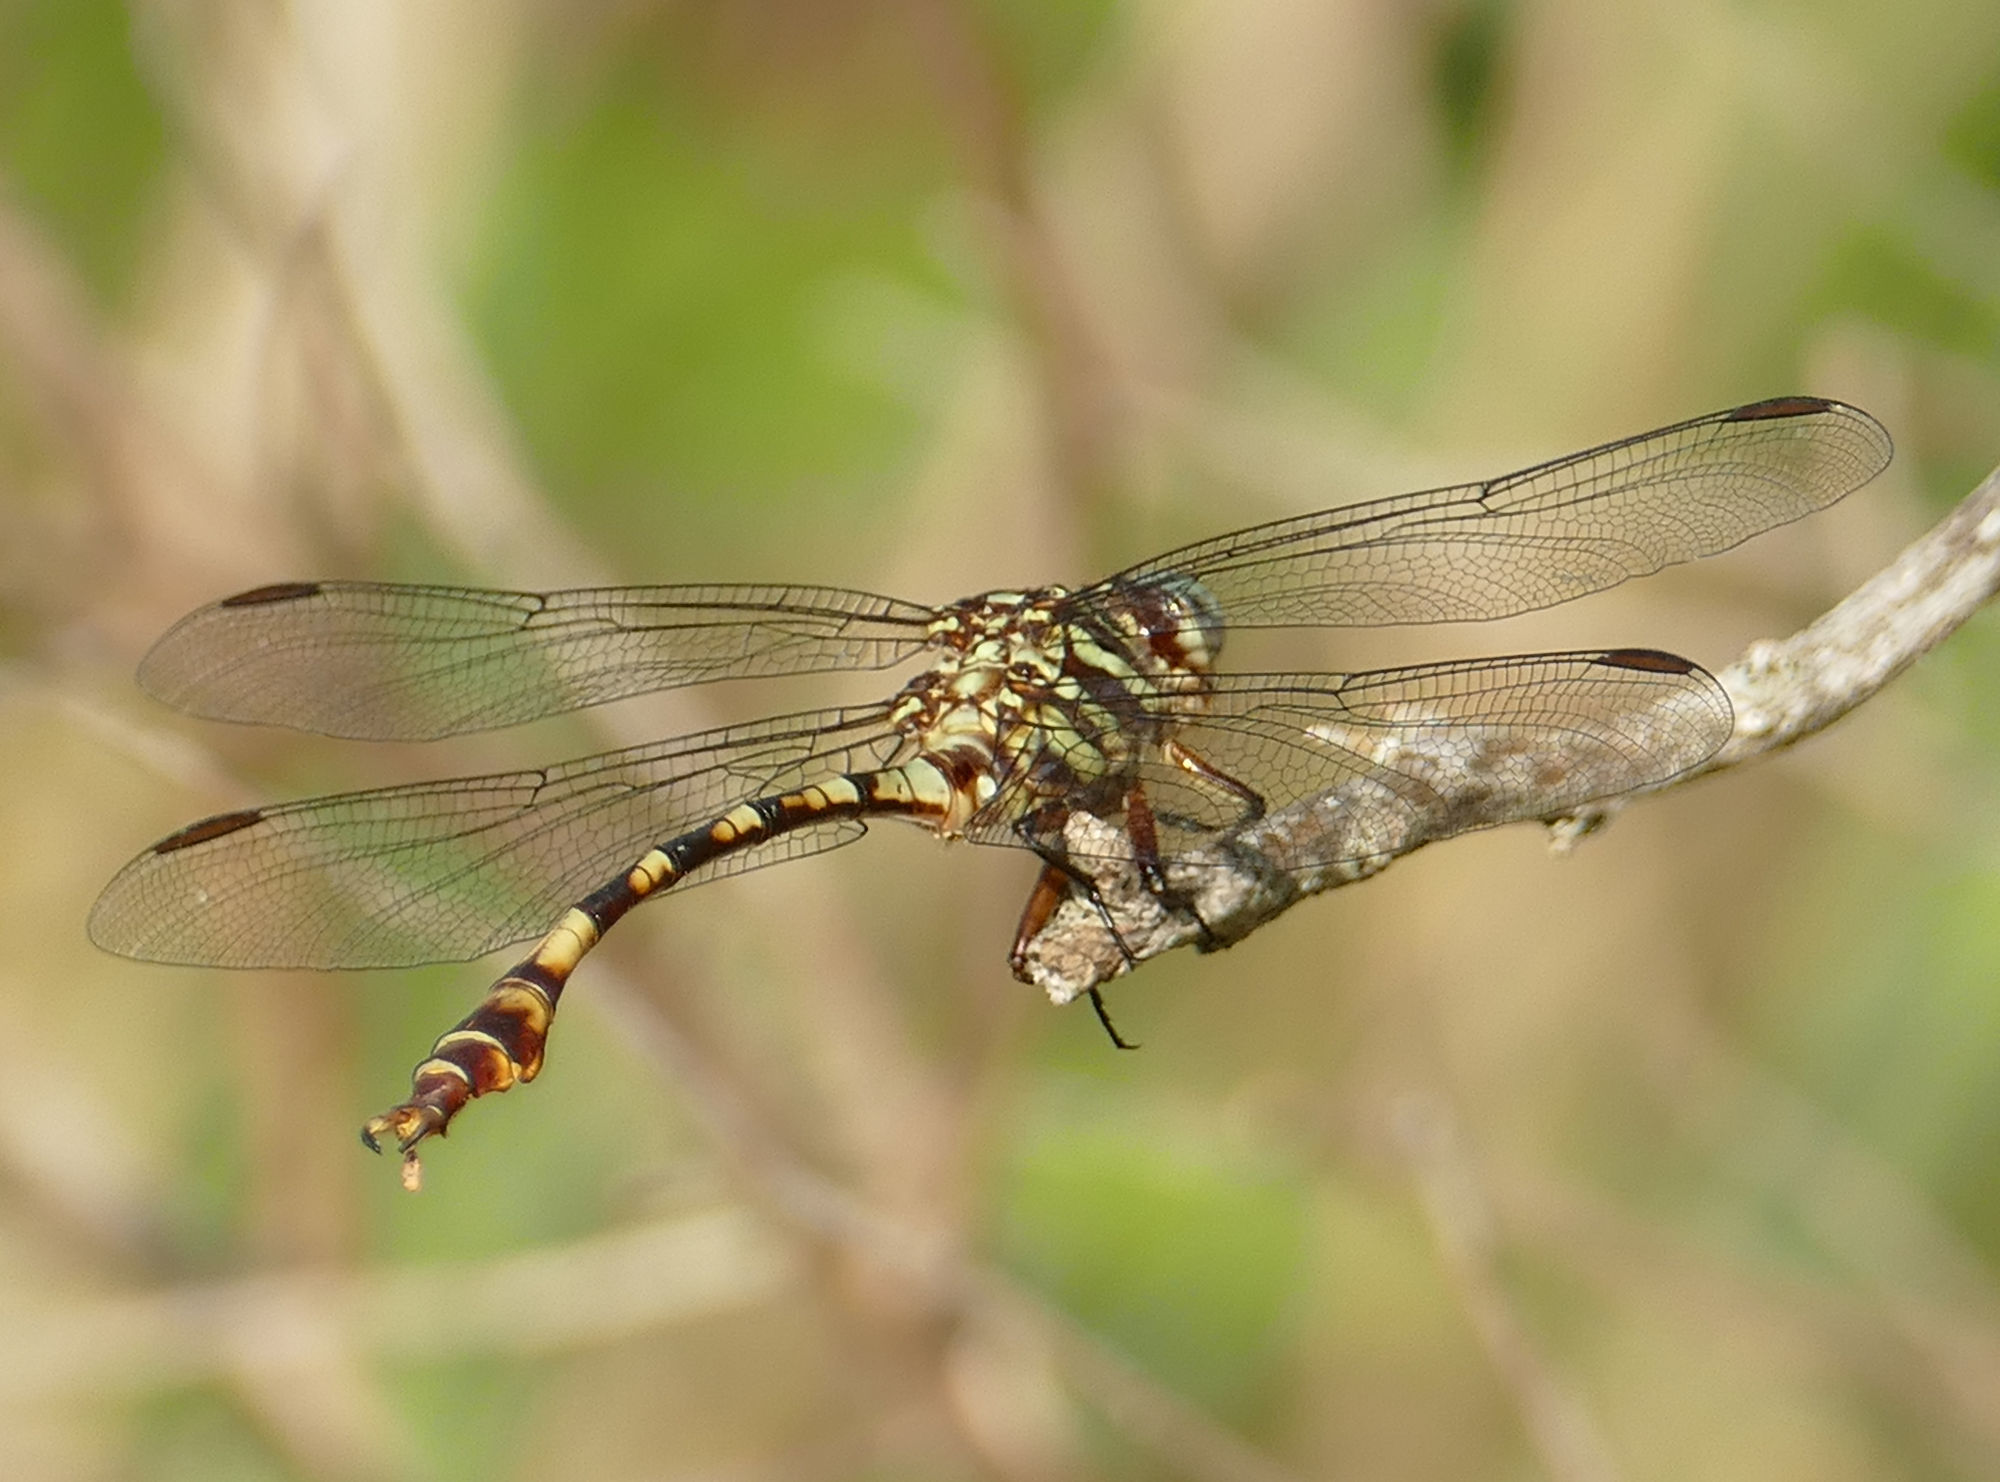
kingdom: Animalia
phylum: Arthropoda
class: Insecta
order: Odonata
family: Gomphidae
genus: Aphylla
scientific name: Aphylla angustifolia
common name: Broad-striped forceptail
